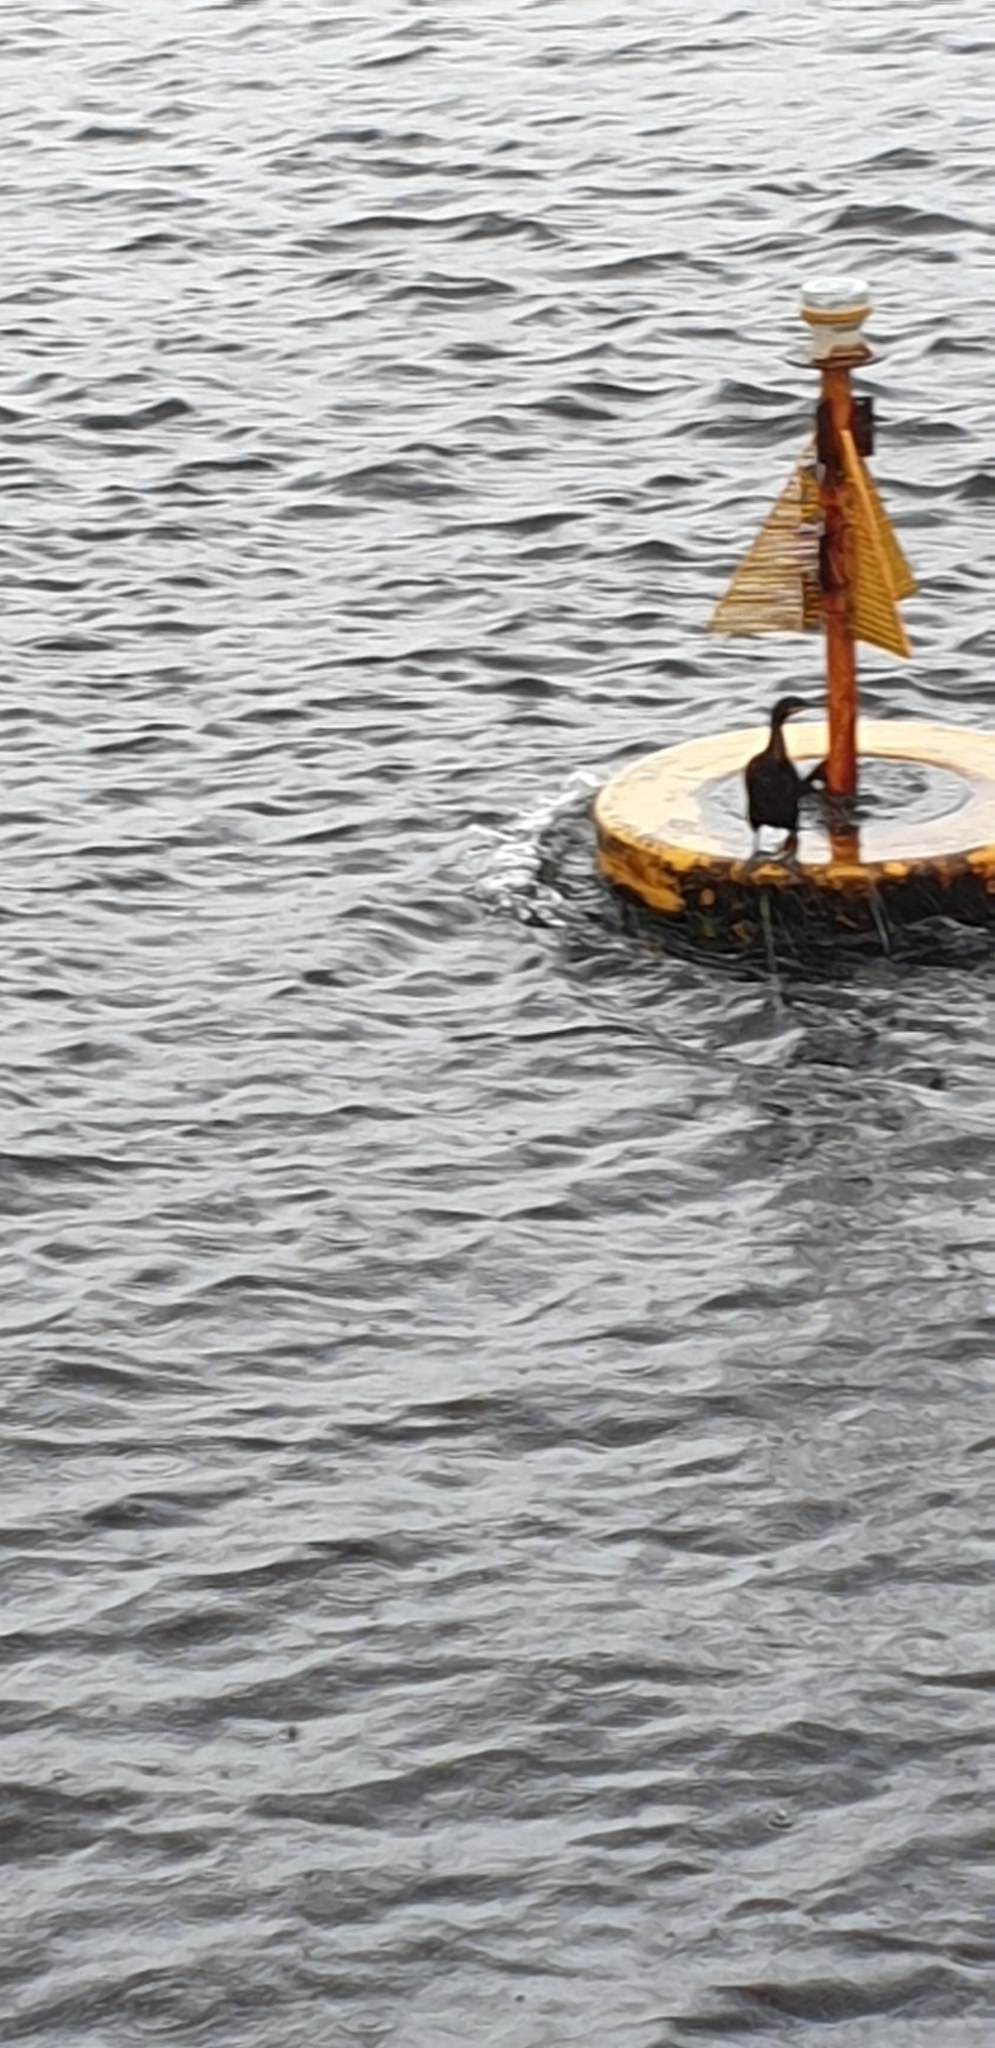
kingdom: Animalia
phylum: Chordata
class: Aves
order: Suliformes
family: Phalacrocoracidae
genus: Phalacrocorax
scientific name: Phalacrocorax aristotelis
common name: European shag
